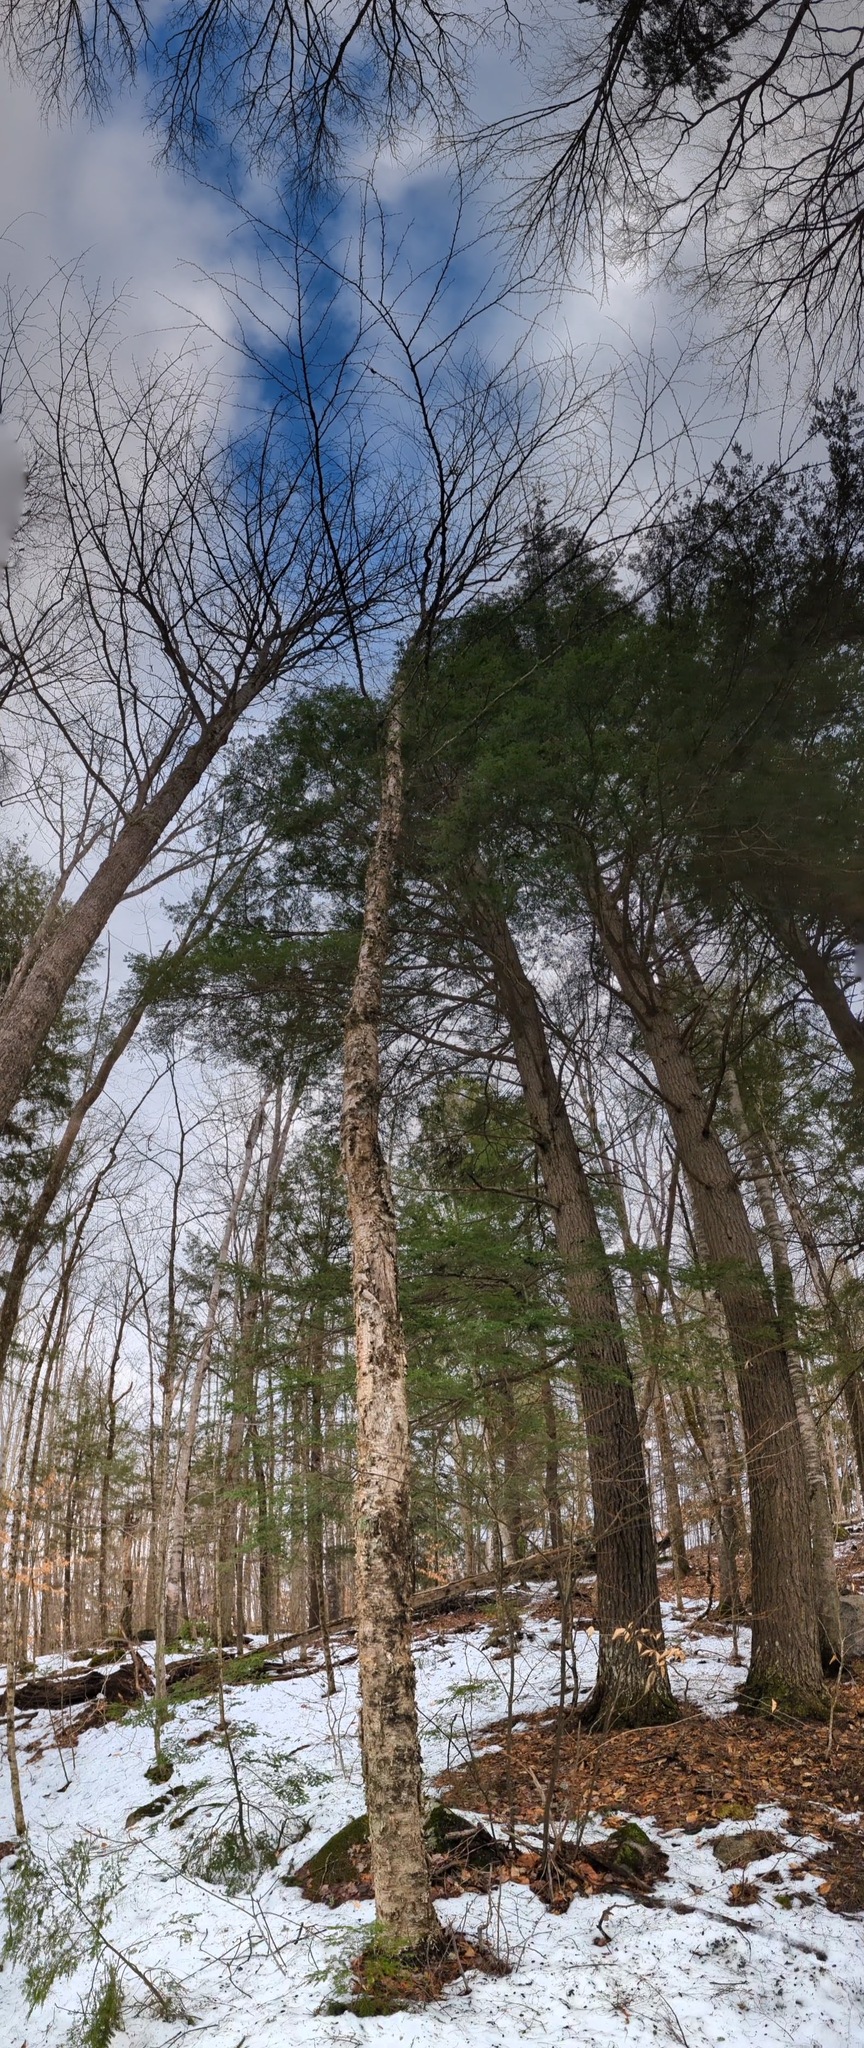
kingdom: Plantae
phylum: Tracheophyta
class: Magnoliopsida
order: Fagales
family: Betulaceae
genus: Betula
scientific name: Betula alleghaniensis
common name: Yellow birch
